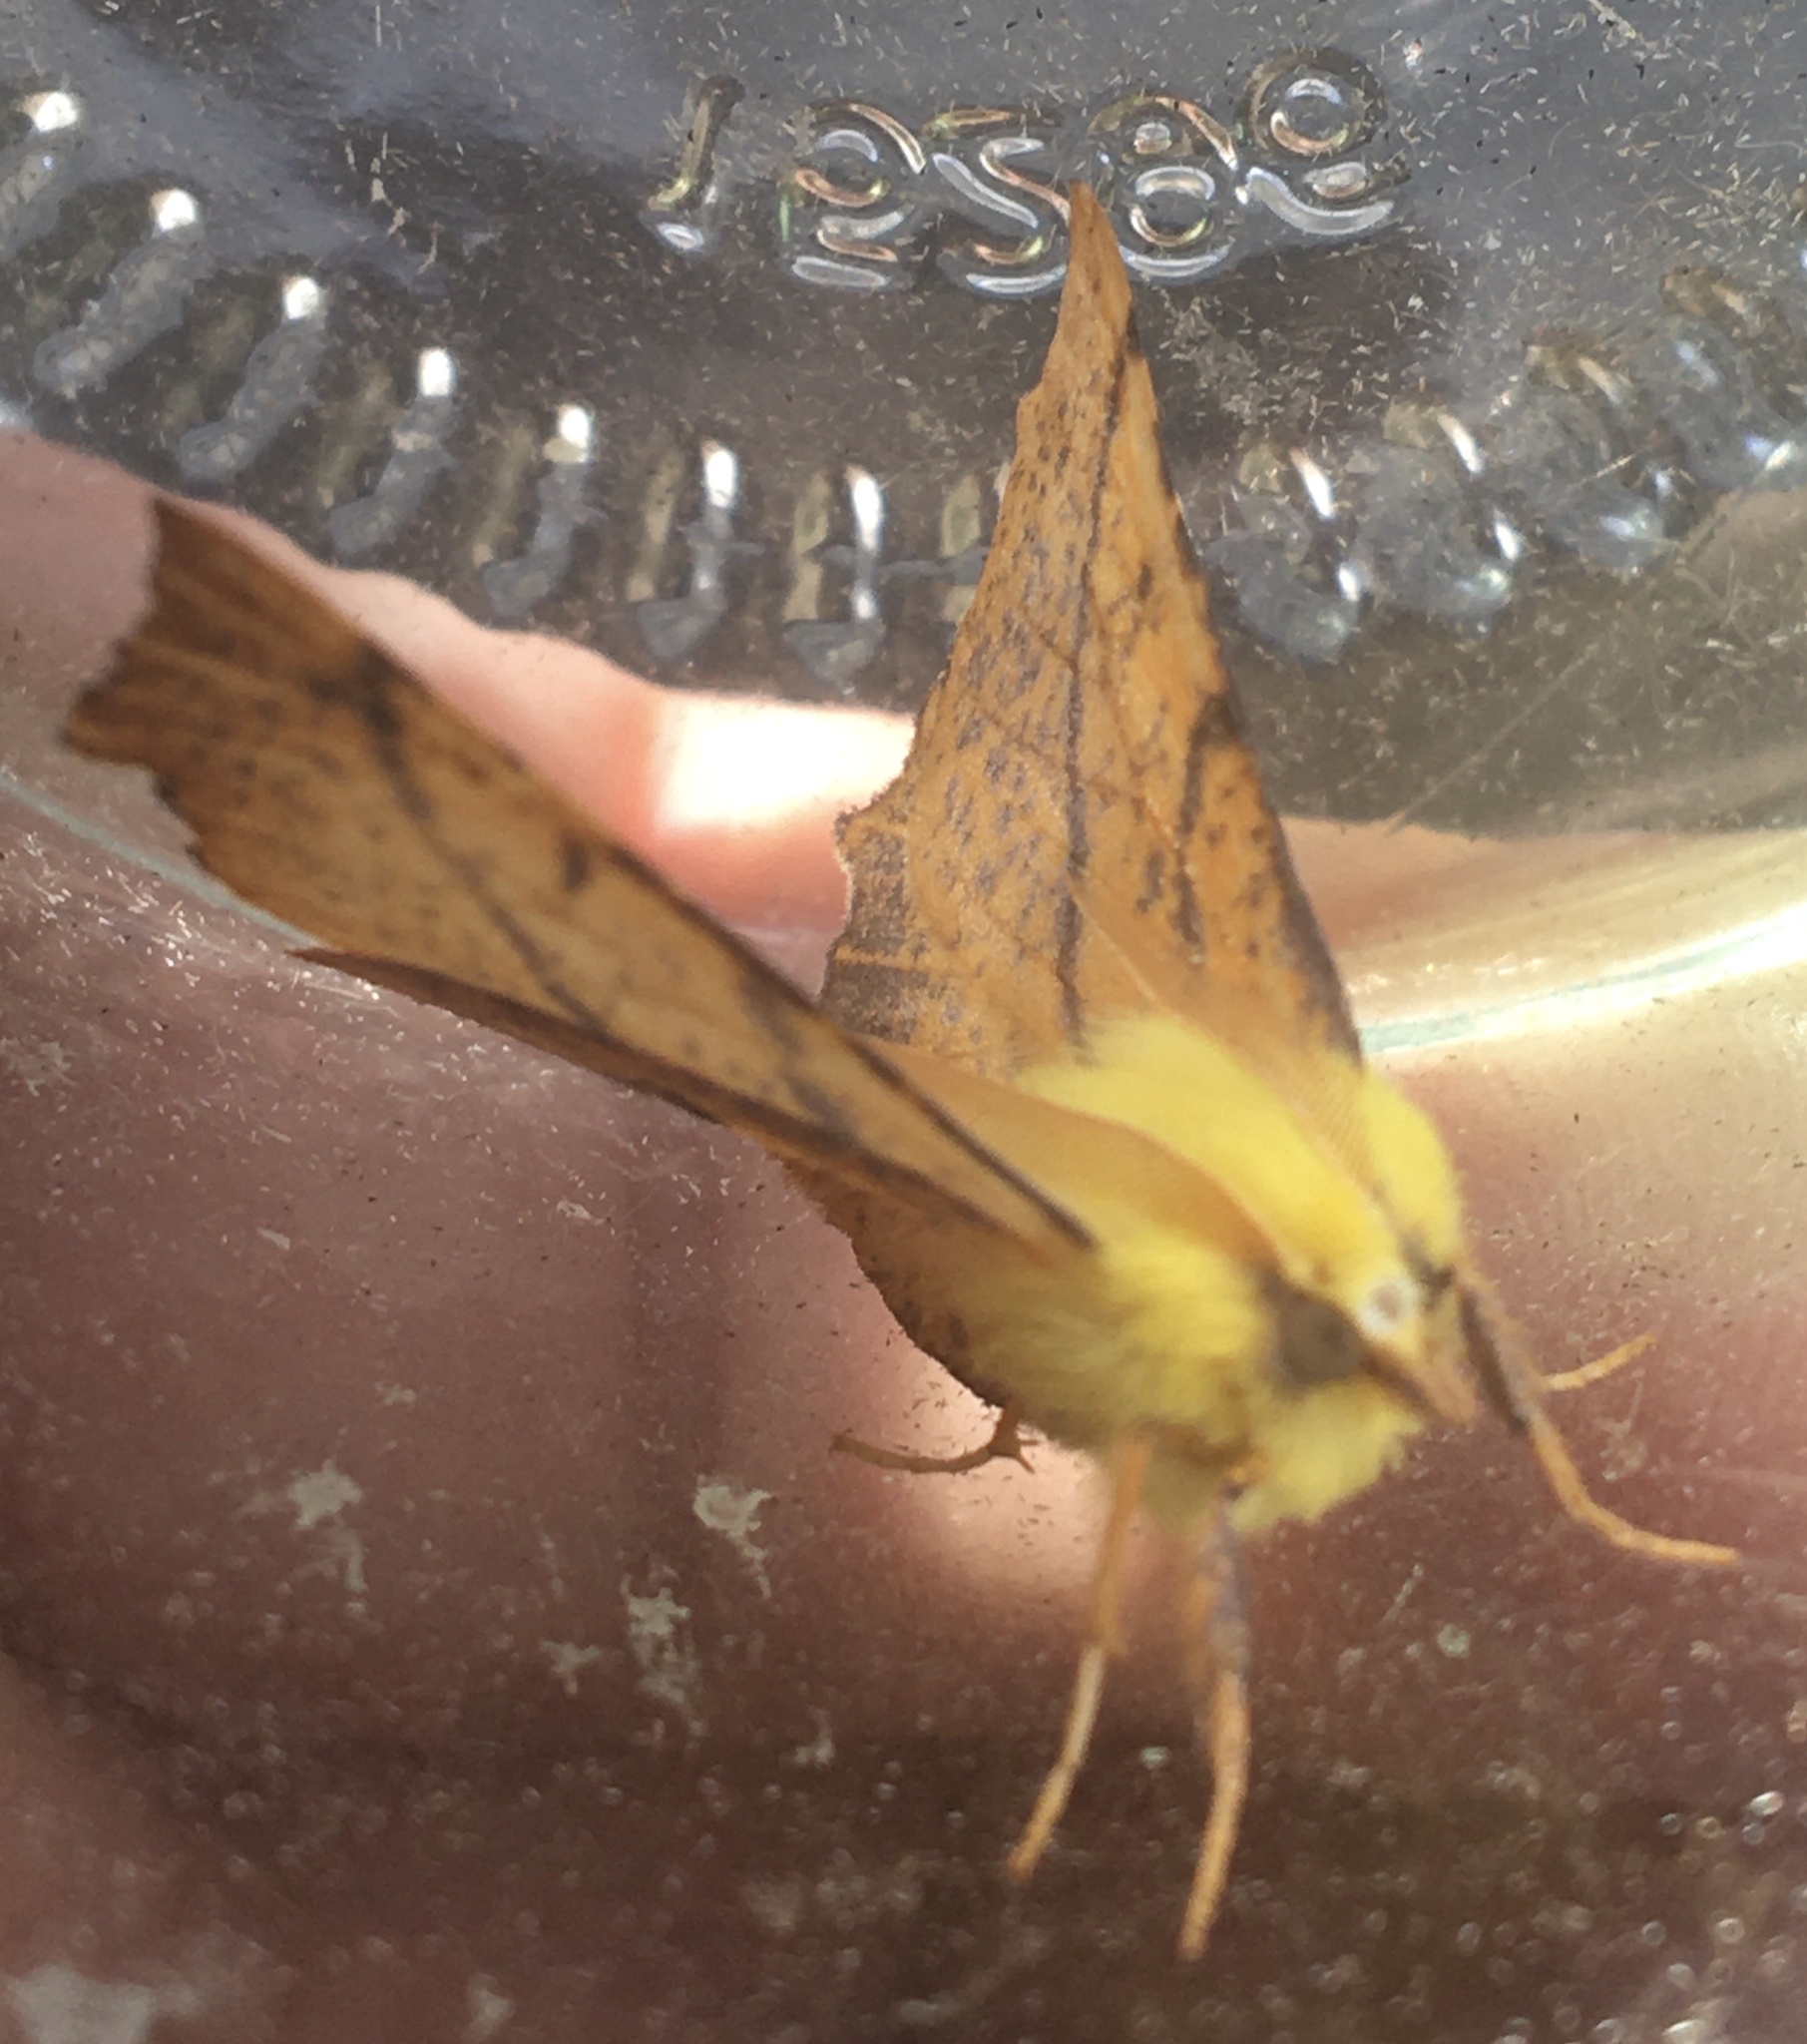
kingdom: Animalia
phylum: Arthropoda
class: Insecta
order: Lepidoptera
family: Geometridae
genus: Ennomos
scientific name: Ennomos alniaria
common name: Canary-shouldered thorn
